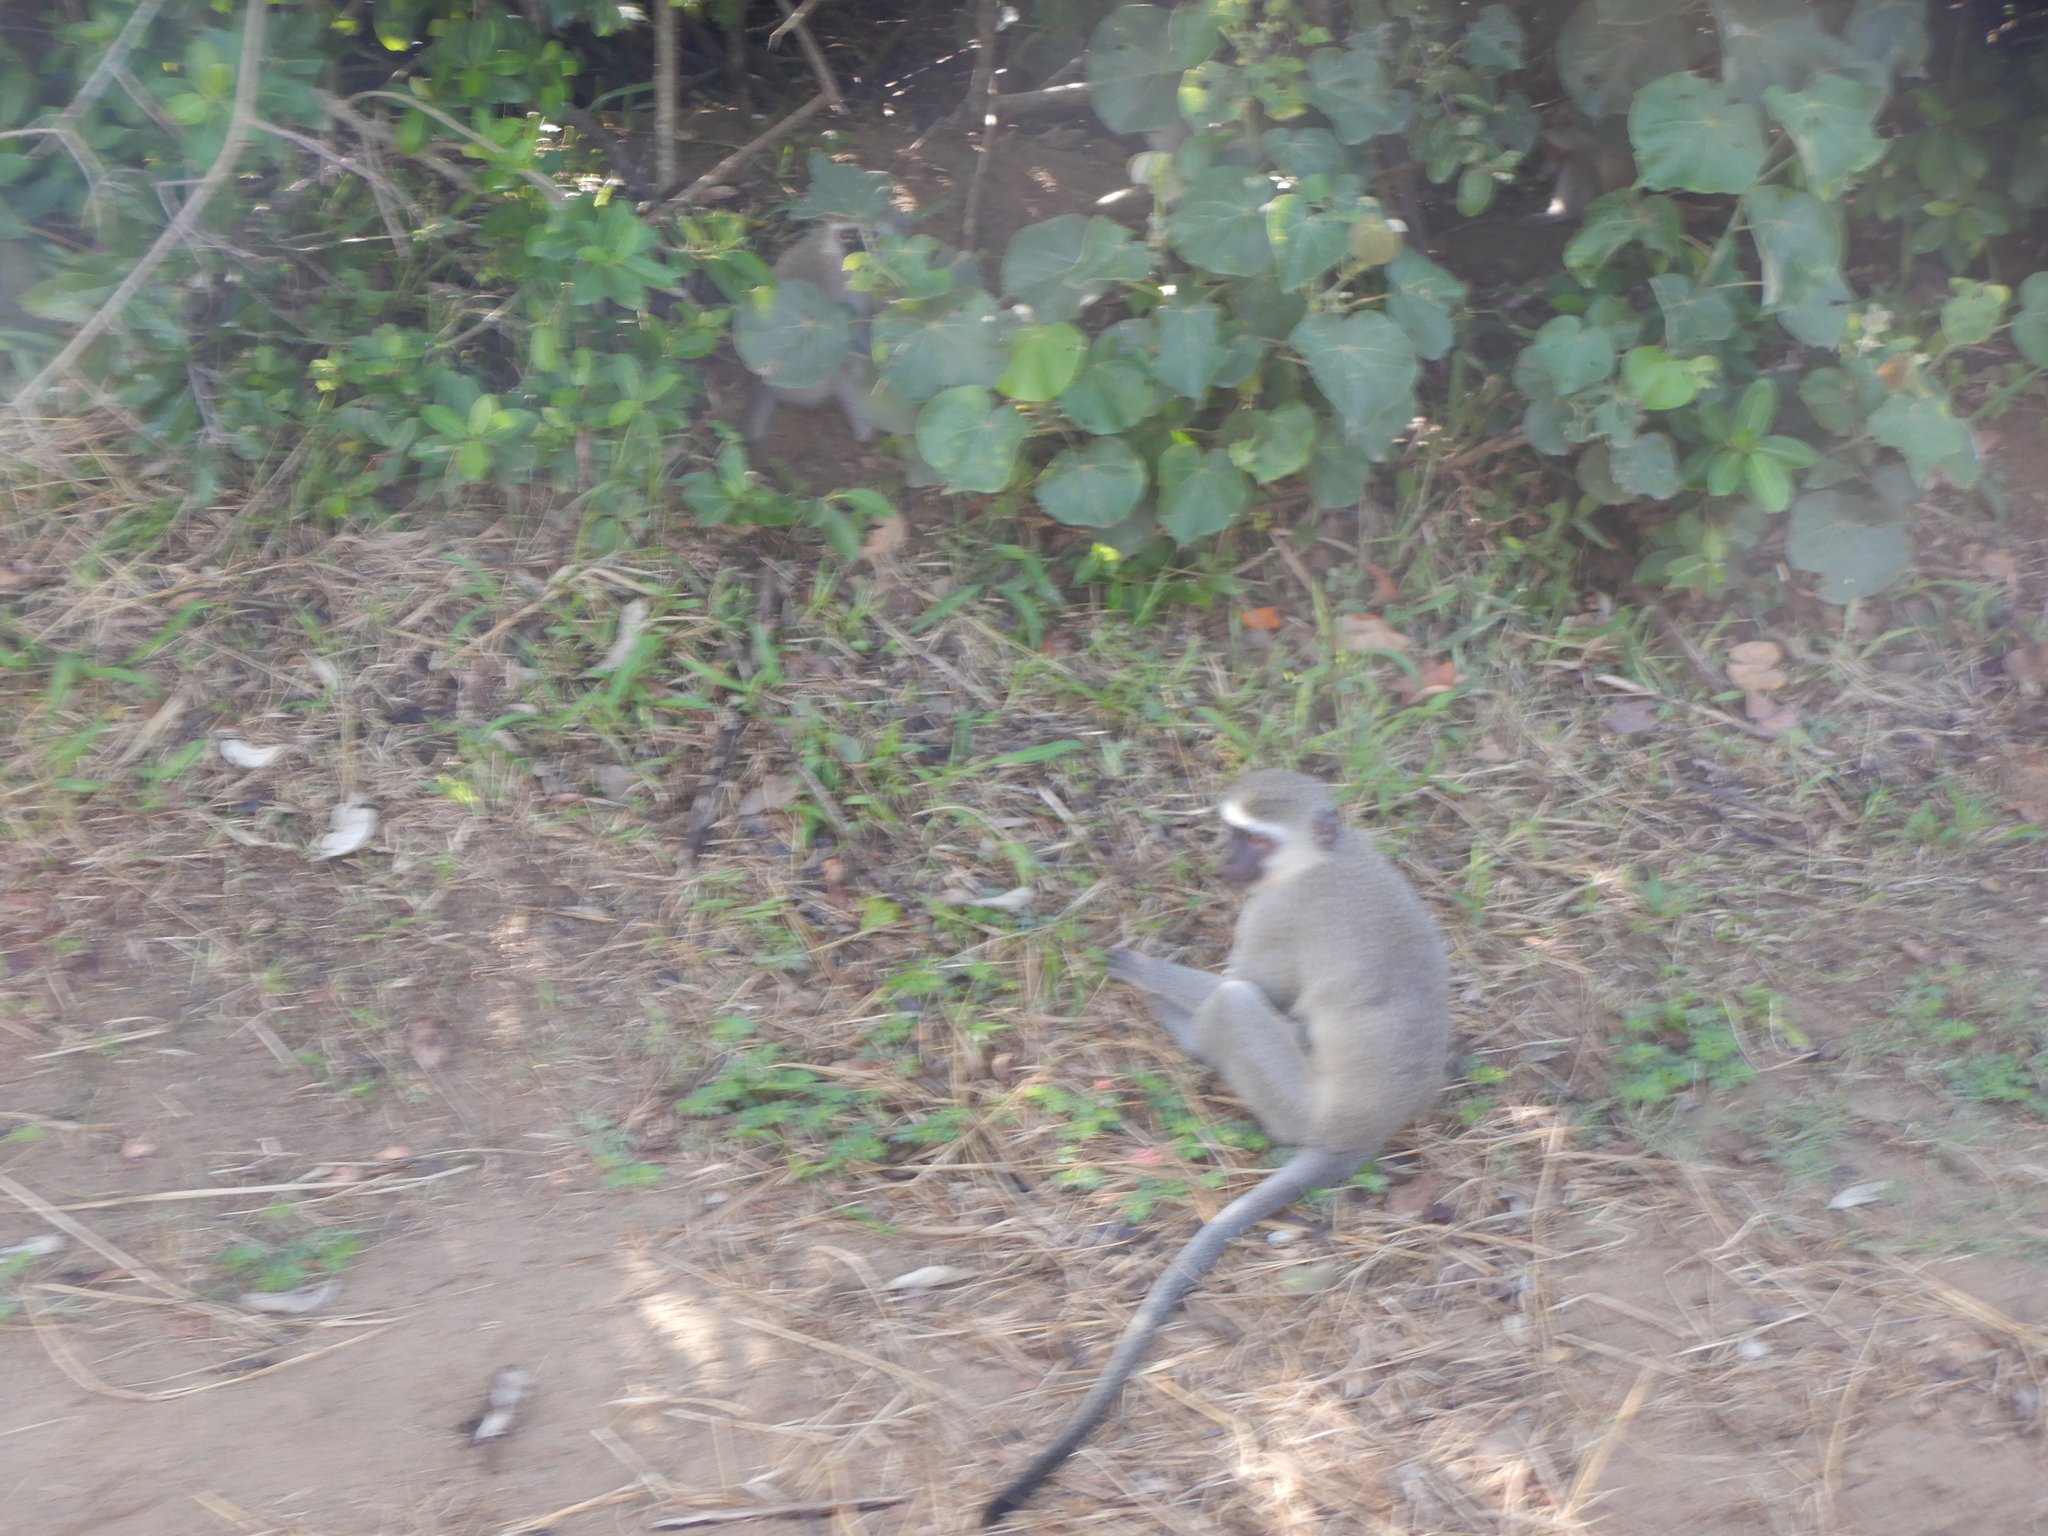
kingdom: Animalia
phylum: Chordata
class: Mammalia
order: Primates
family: Cercopithecidae
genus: Chlorocebus
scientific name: Chlorocebus pygerythrus
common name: Vervet monkey
